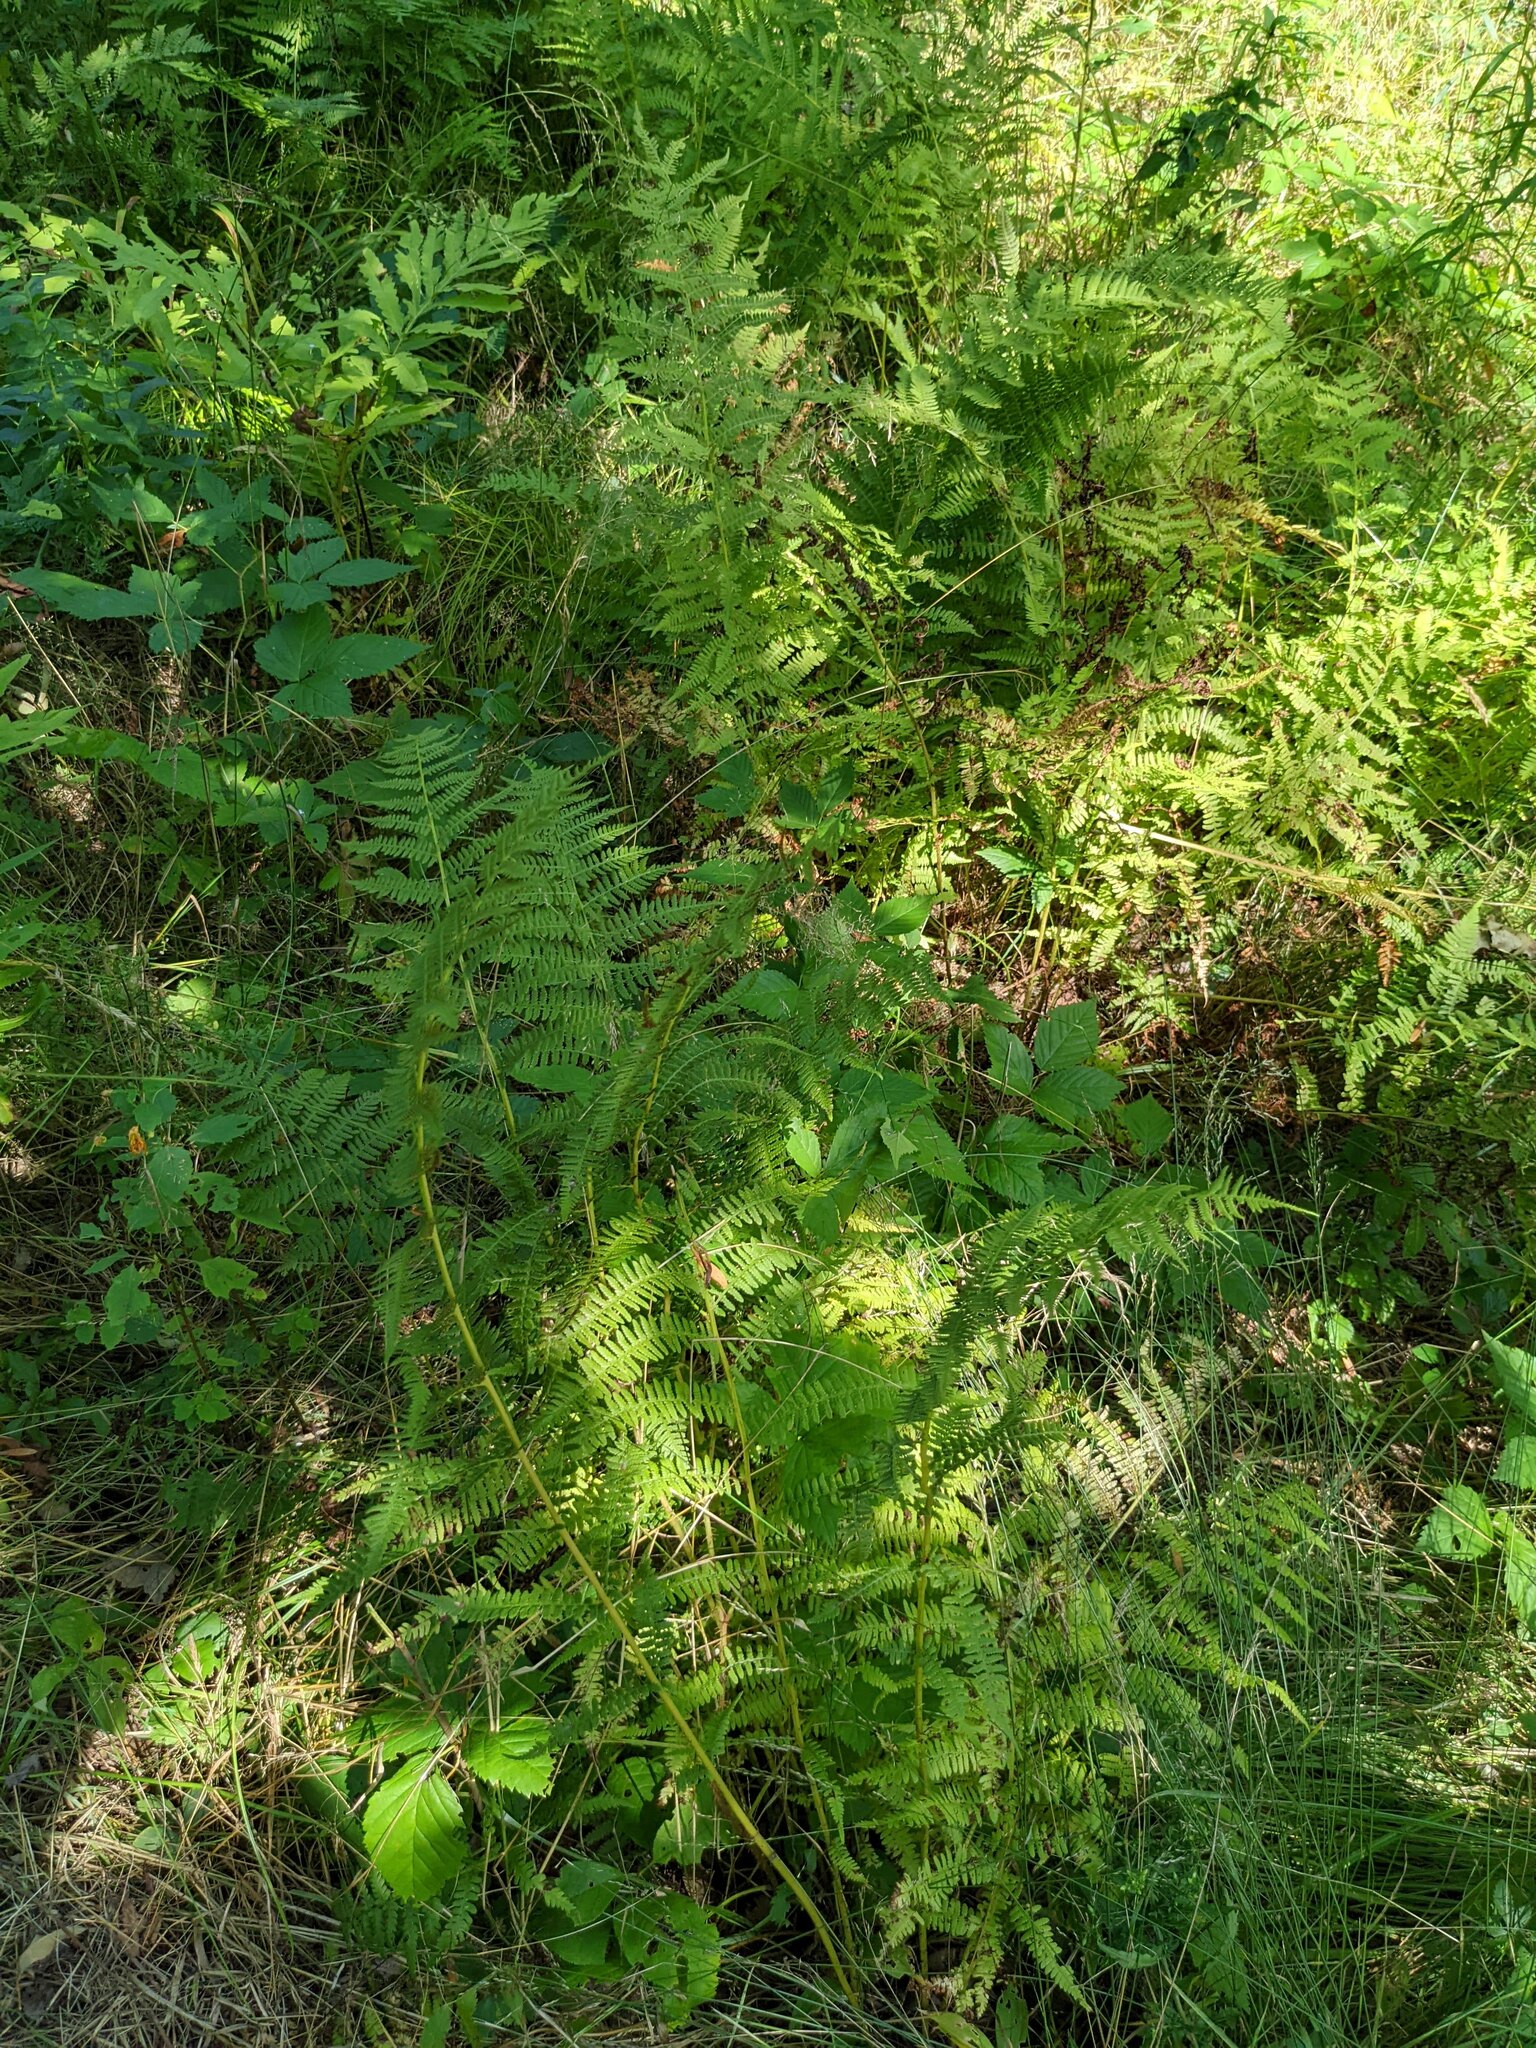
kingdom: Plantae
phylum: Tracheophyta
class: Polypodiopsida
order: Polypodiales
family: Athyriaceae
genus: Athyrium
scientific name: Athyrium angustum
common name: Northern lady fern
